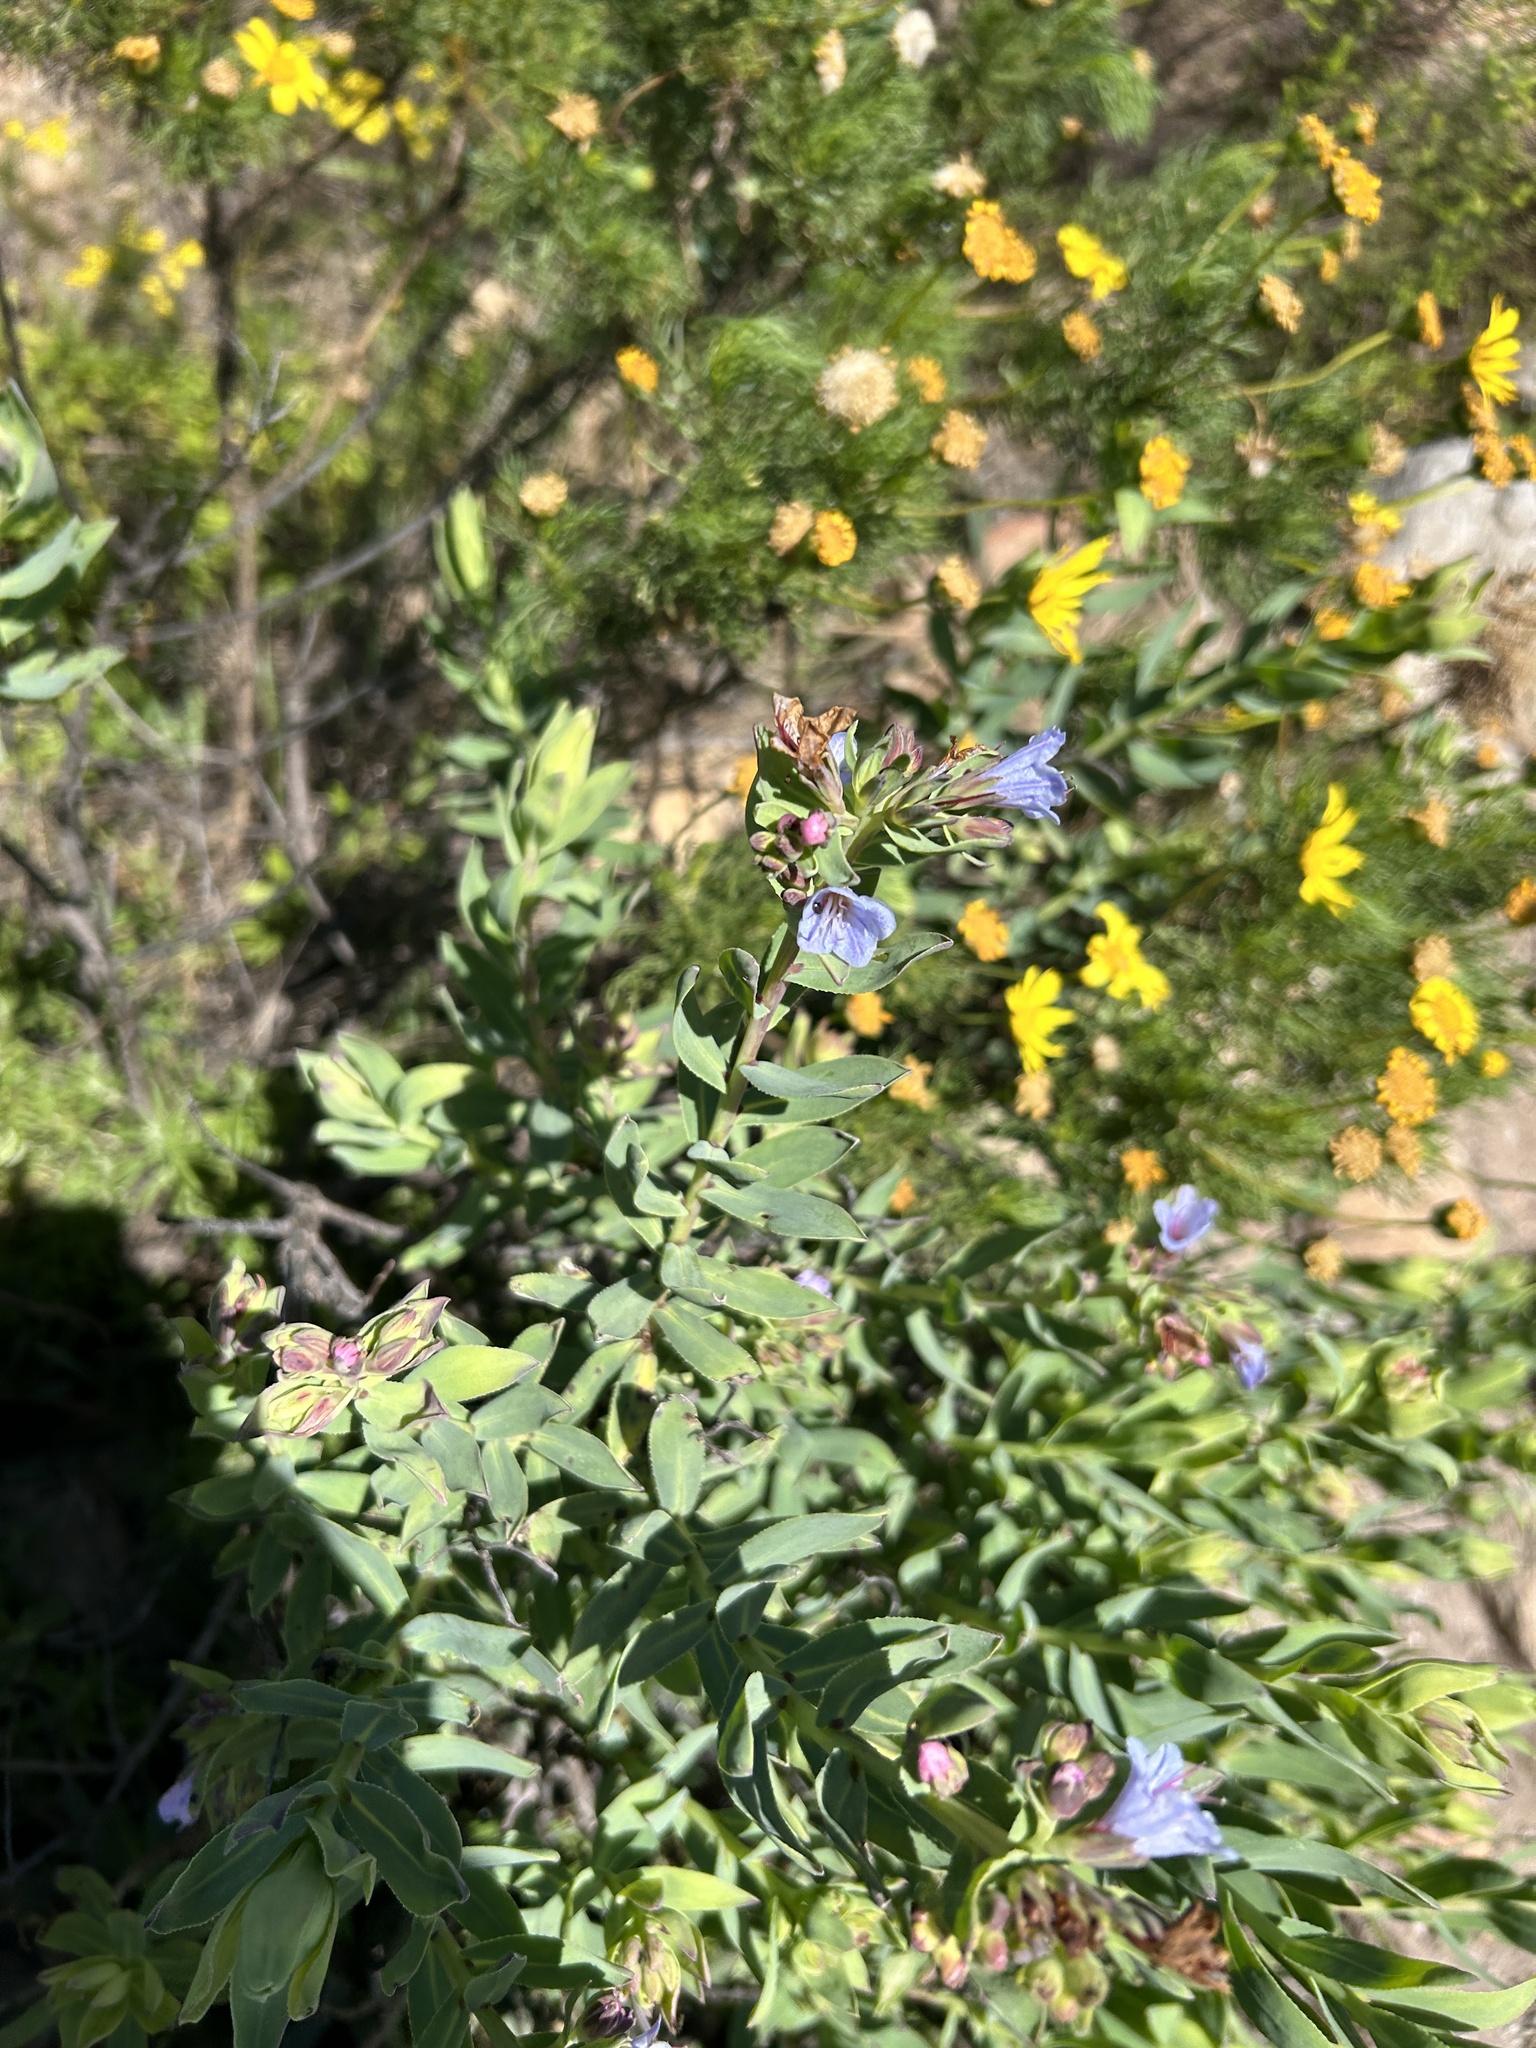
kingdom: Plantae
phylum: Tracheophyta
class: Magnoliopsida
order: Boraginales
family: Boraginaceae
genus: Lobostemon
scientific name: Lobostemon glaucophyllus
